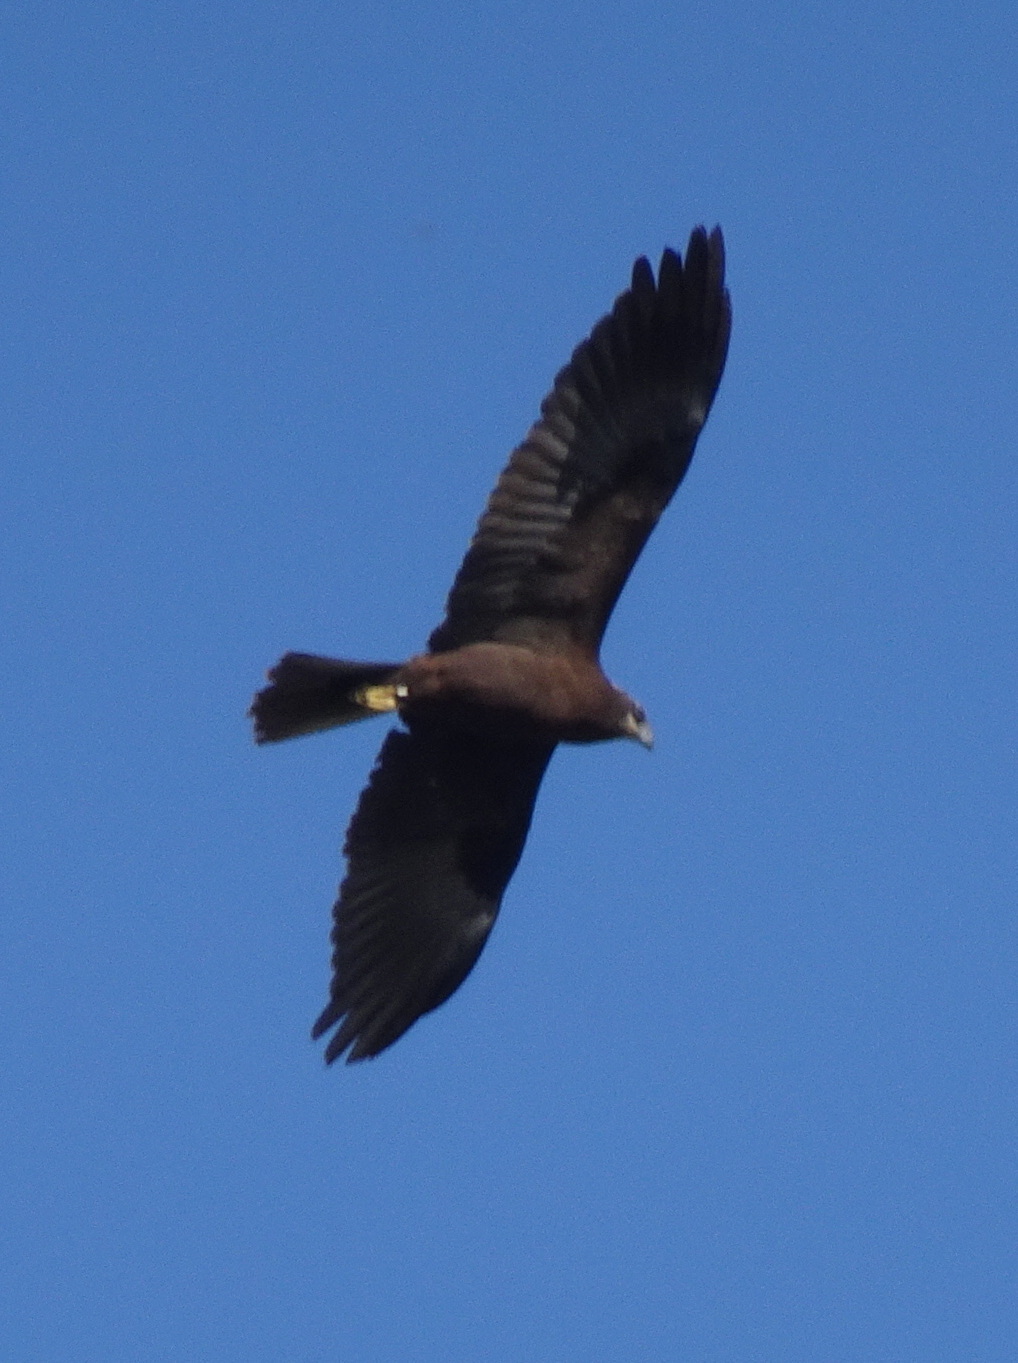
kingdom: Animalia
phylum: Chordata
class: Aves
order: Accipitriformes
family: Accipitridae
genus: Circus
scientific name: Circus aeruginosus
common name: Western marsh harrier
